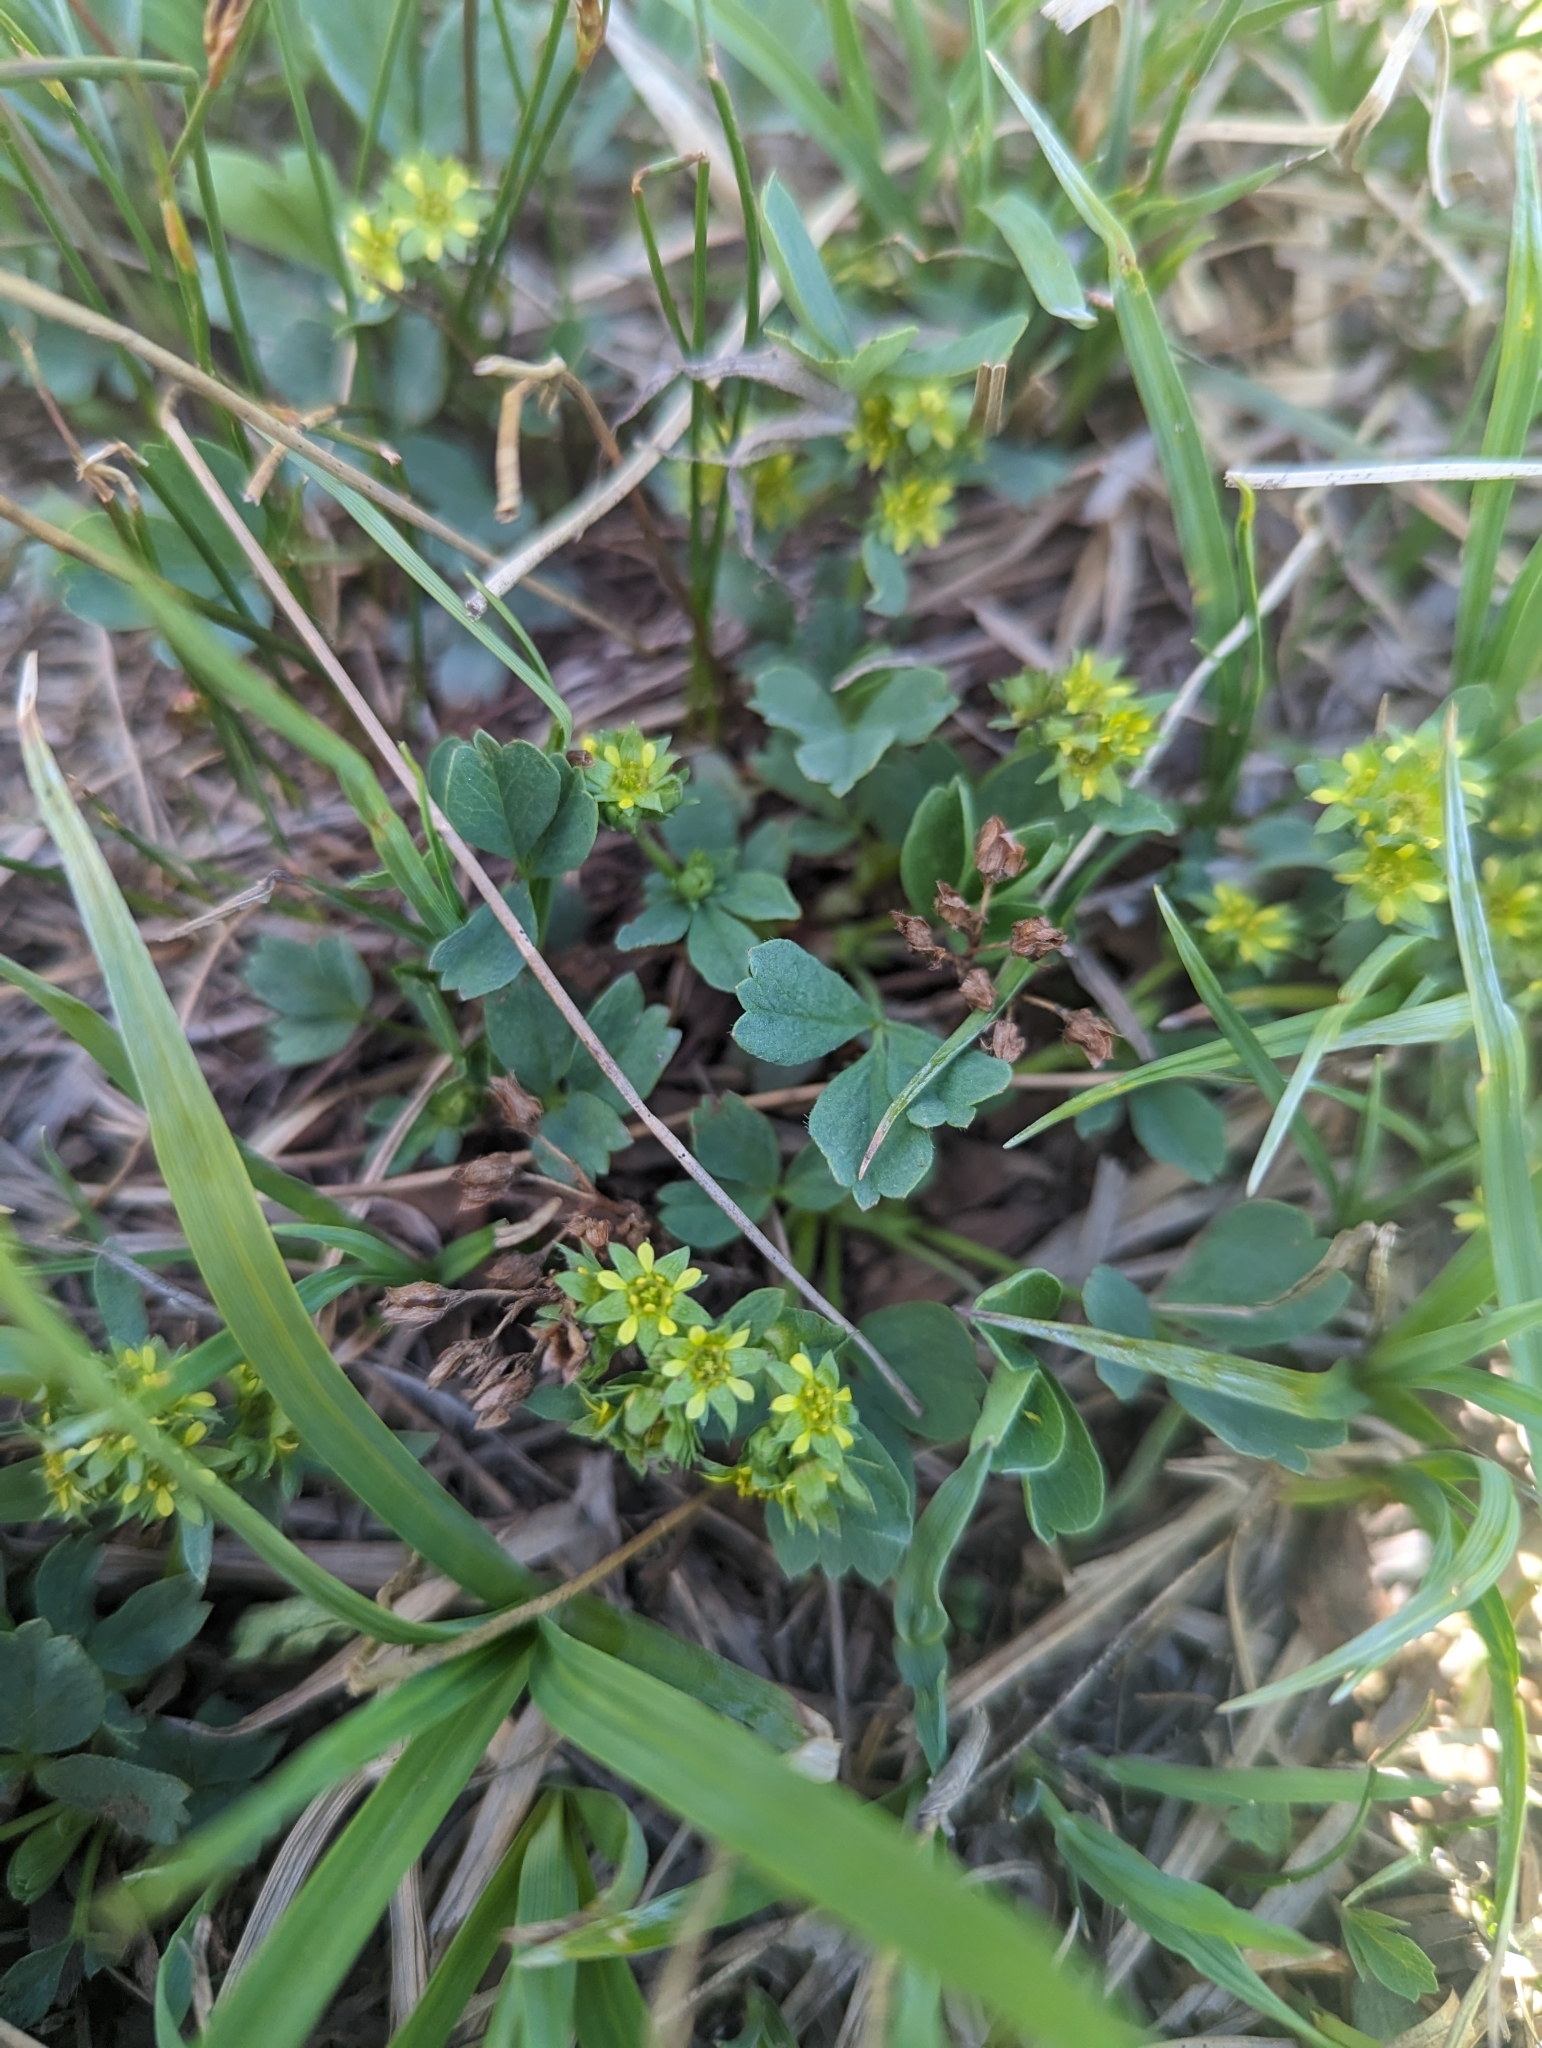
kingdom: Plantae
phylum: Tracheophyta
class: Magnoliopsida
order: Rosales
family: Rosaceae
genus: Sibbaldia
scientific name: Sibbaldia procumbens
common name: Creeping sibbaldia
